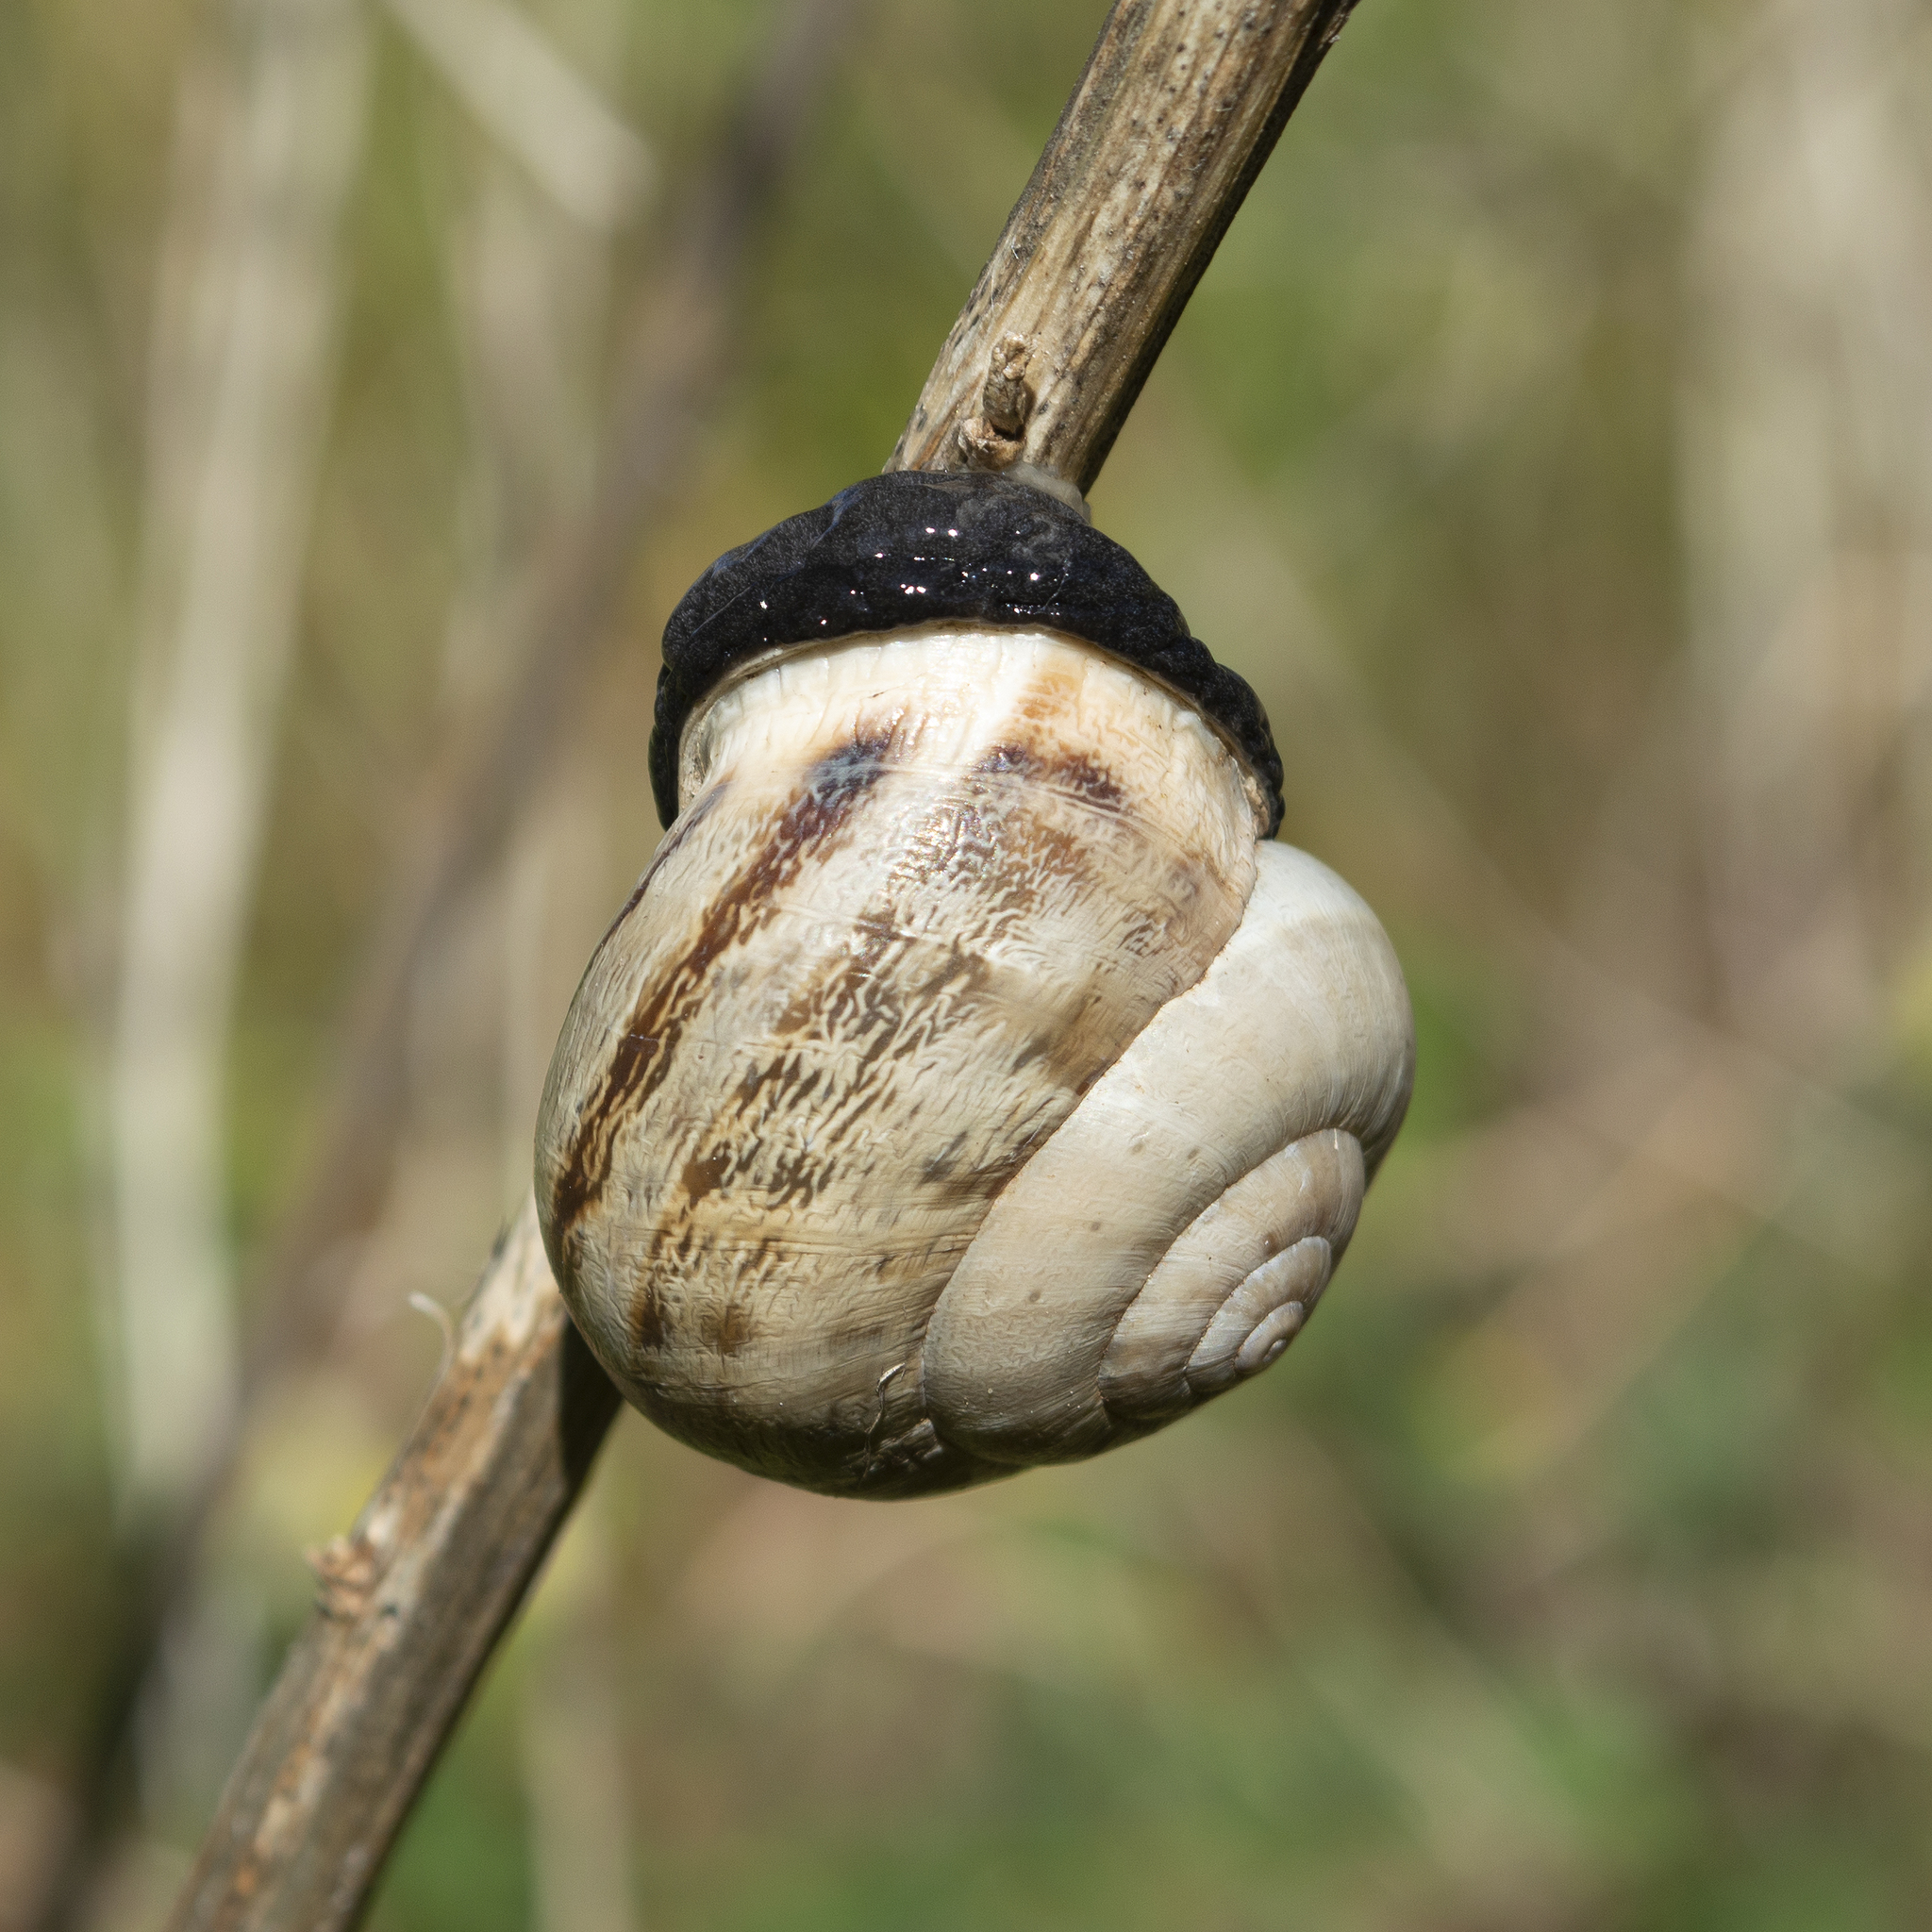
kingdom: Animalia
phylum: Mollusca
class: Gastropoda
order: Stylommatophora
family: Helicidae
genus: Eobania
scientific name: Eobania vermiculata
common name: Chocolateband snail
